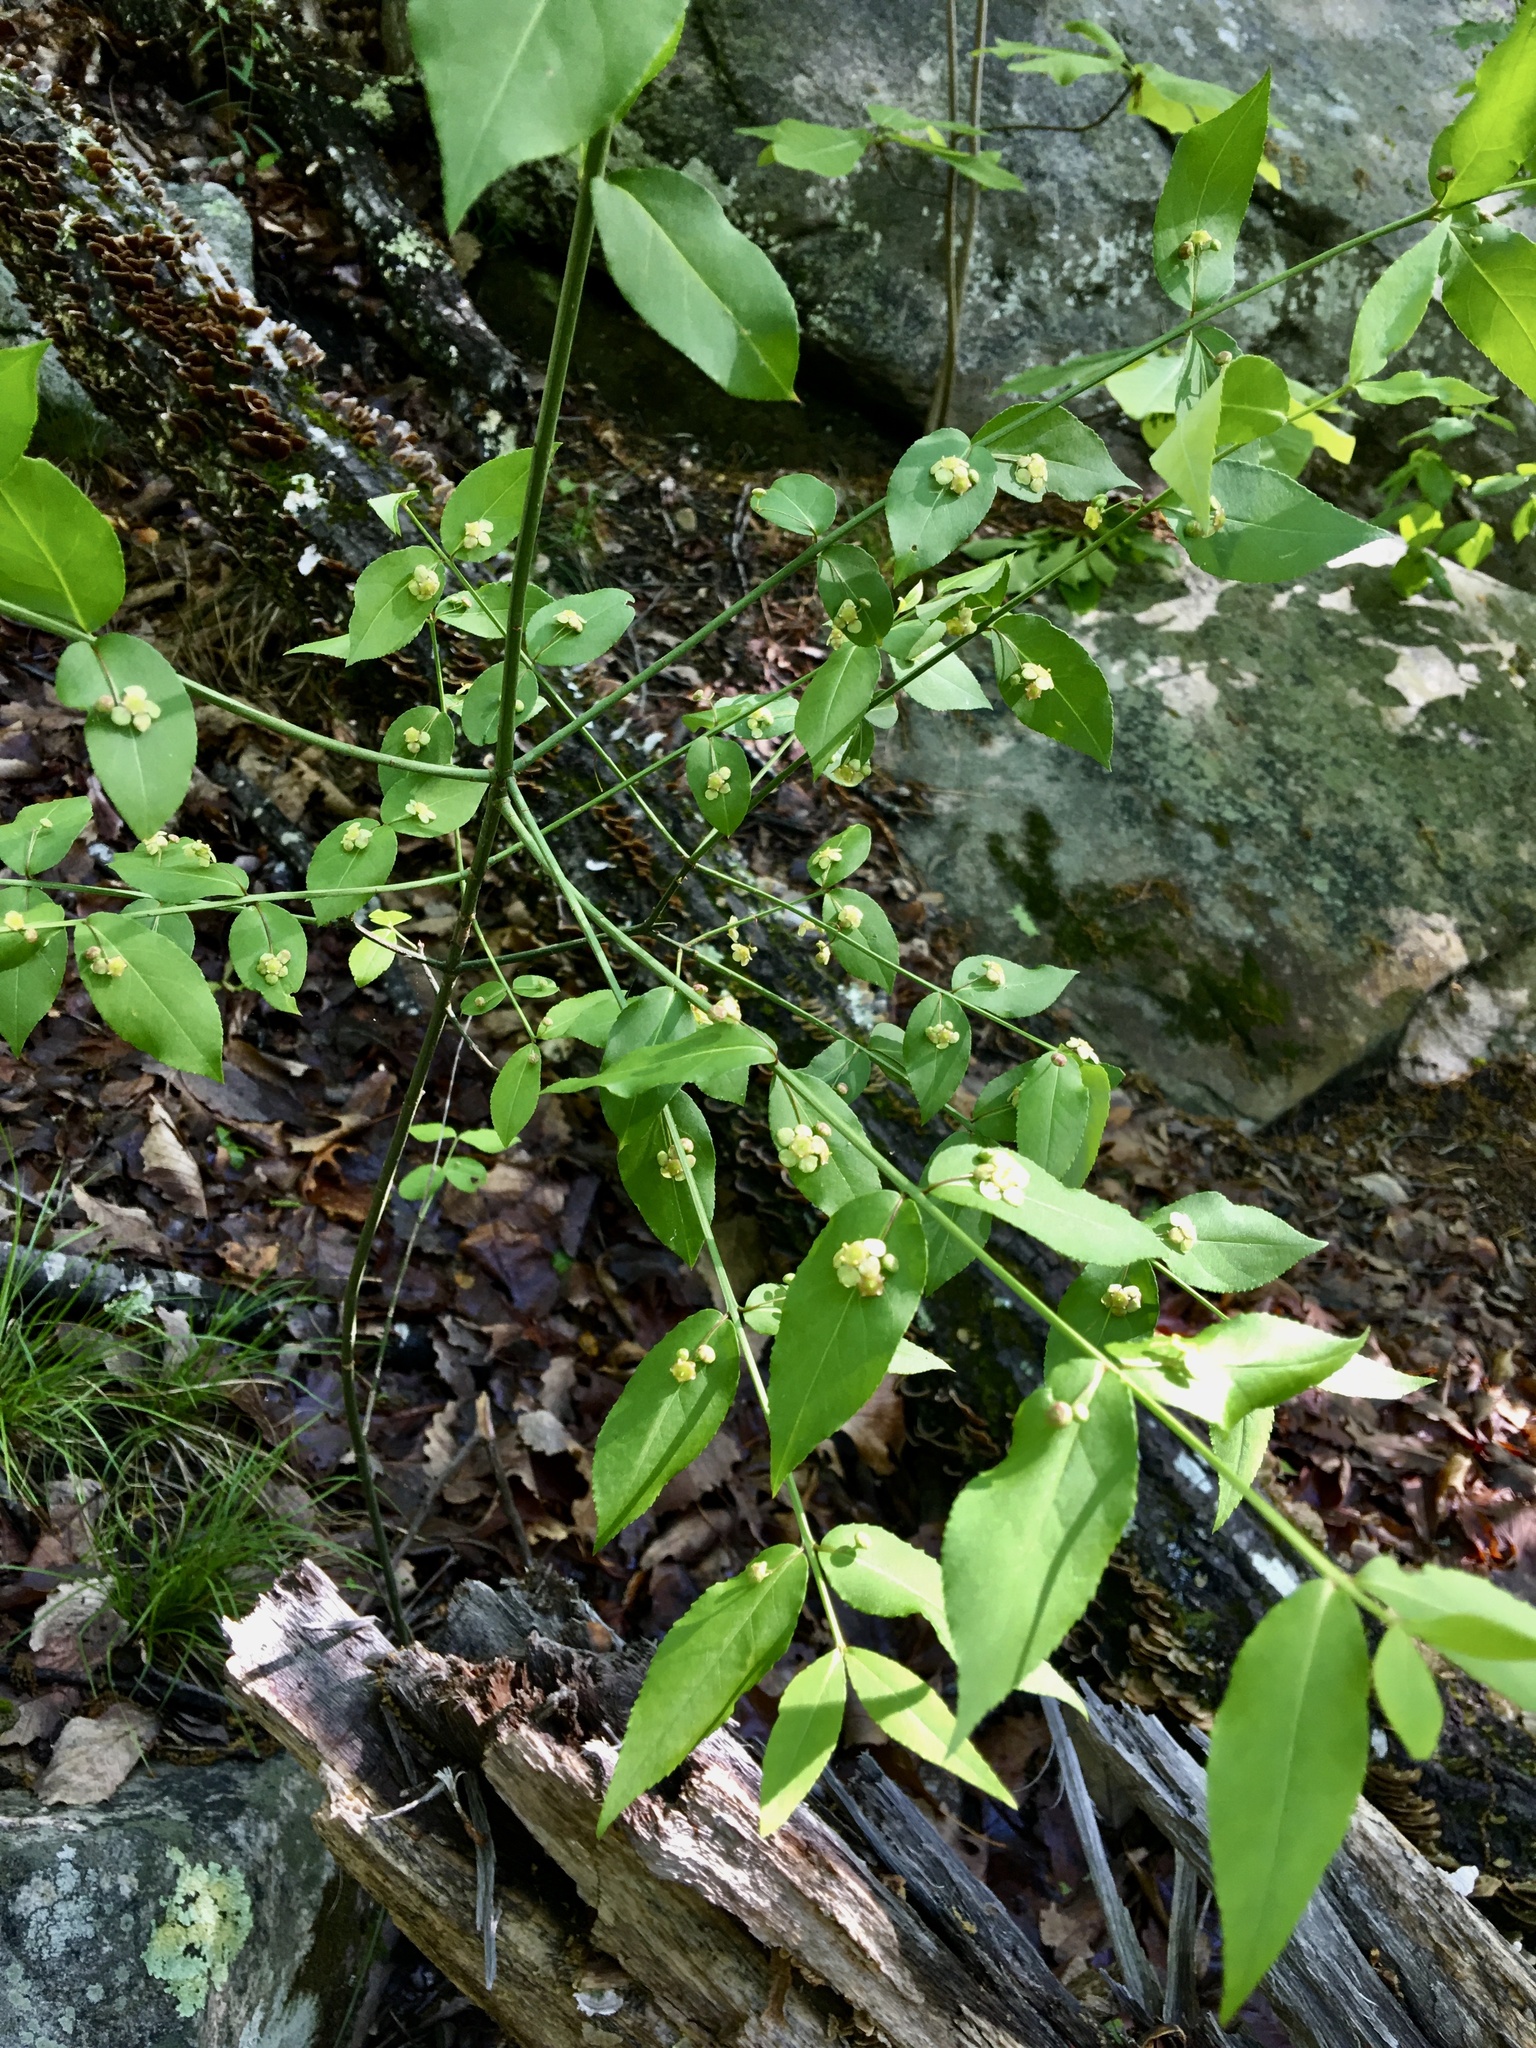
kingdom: Plantae
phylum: Tracheophyta
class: Magnoliopsida
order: Celastrales
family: Celastraceae
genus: Euonymus
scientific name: Euonymus americanus
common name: Bursting-heart
